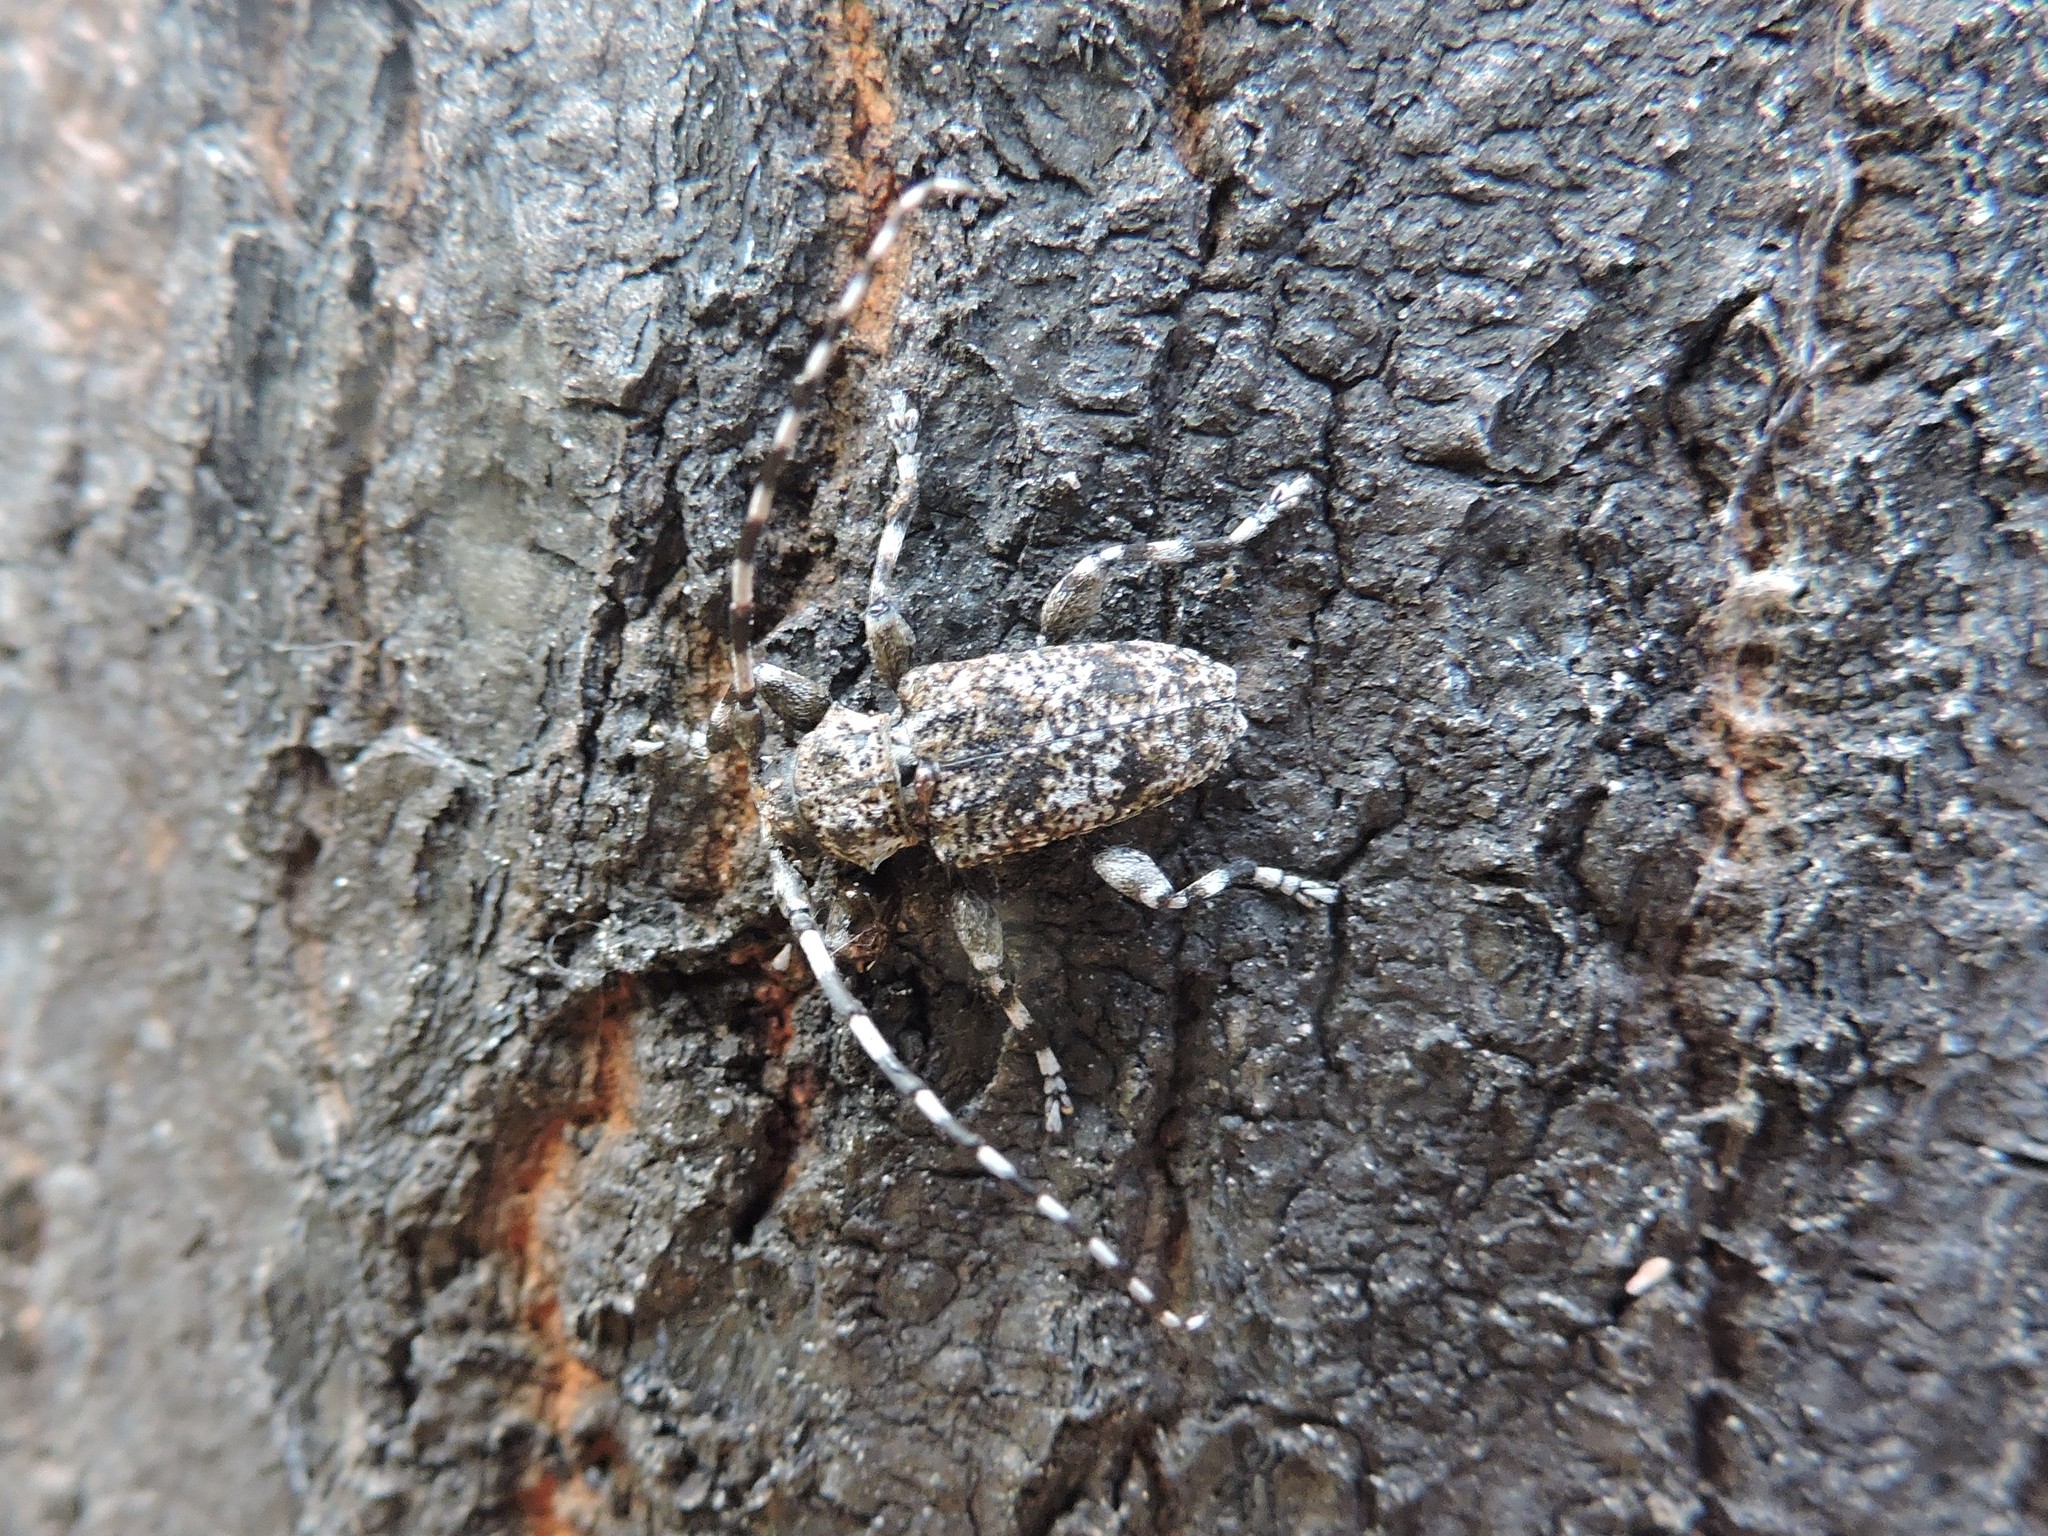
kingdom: Animalia
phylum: Arthropoda
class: Insecta
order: Coleoptera
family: Cerambycidae
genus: Aegomorphus
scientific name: Aegomorphus clavipes
